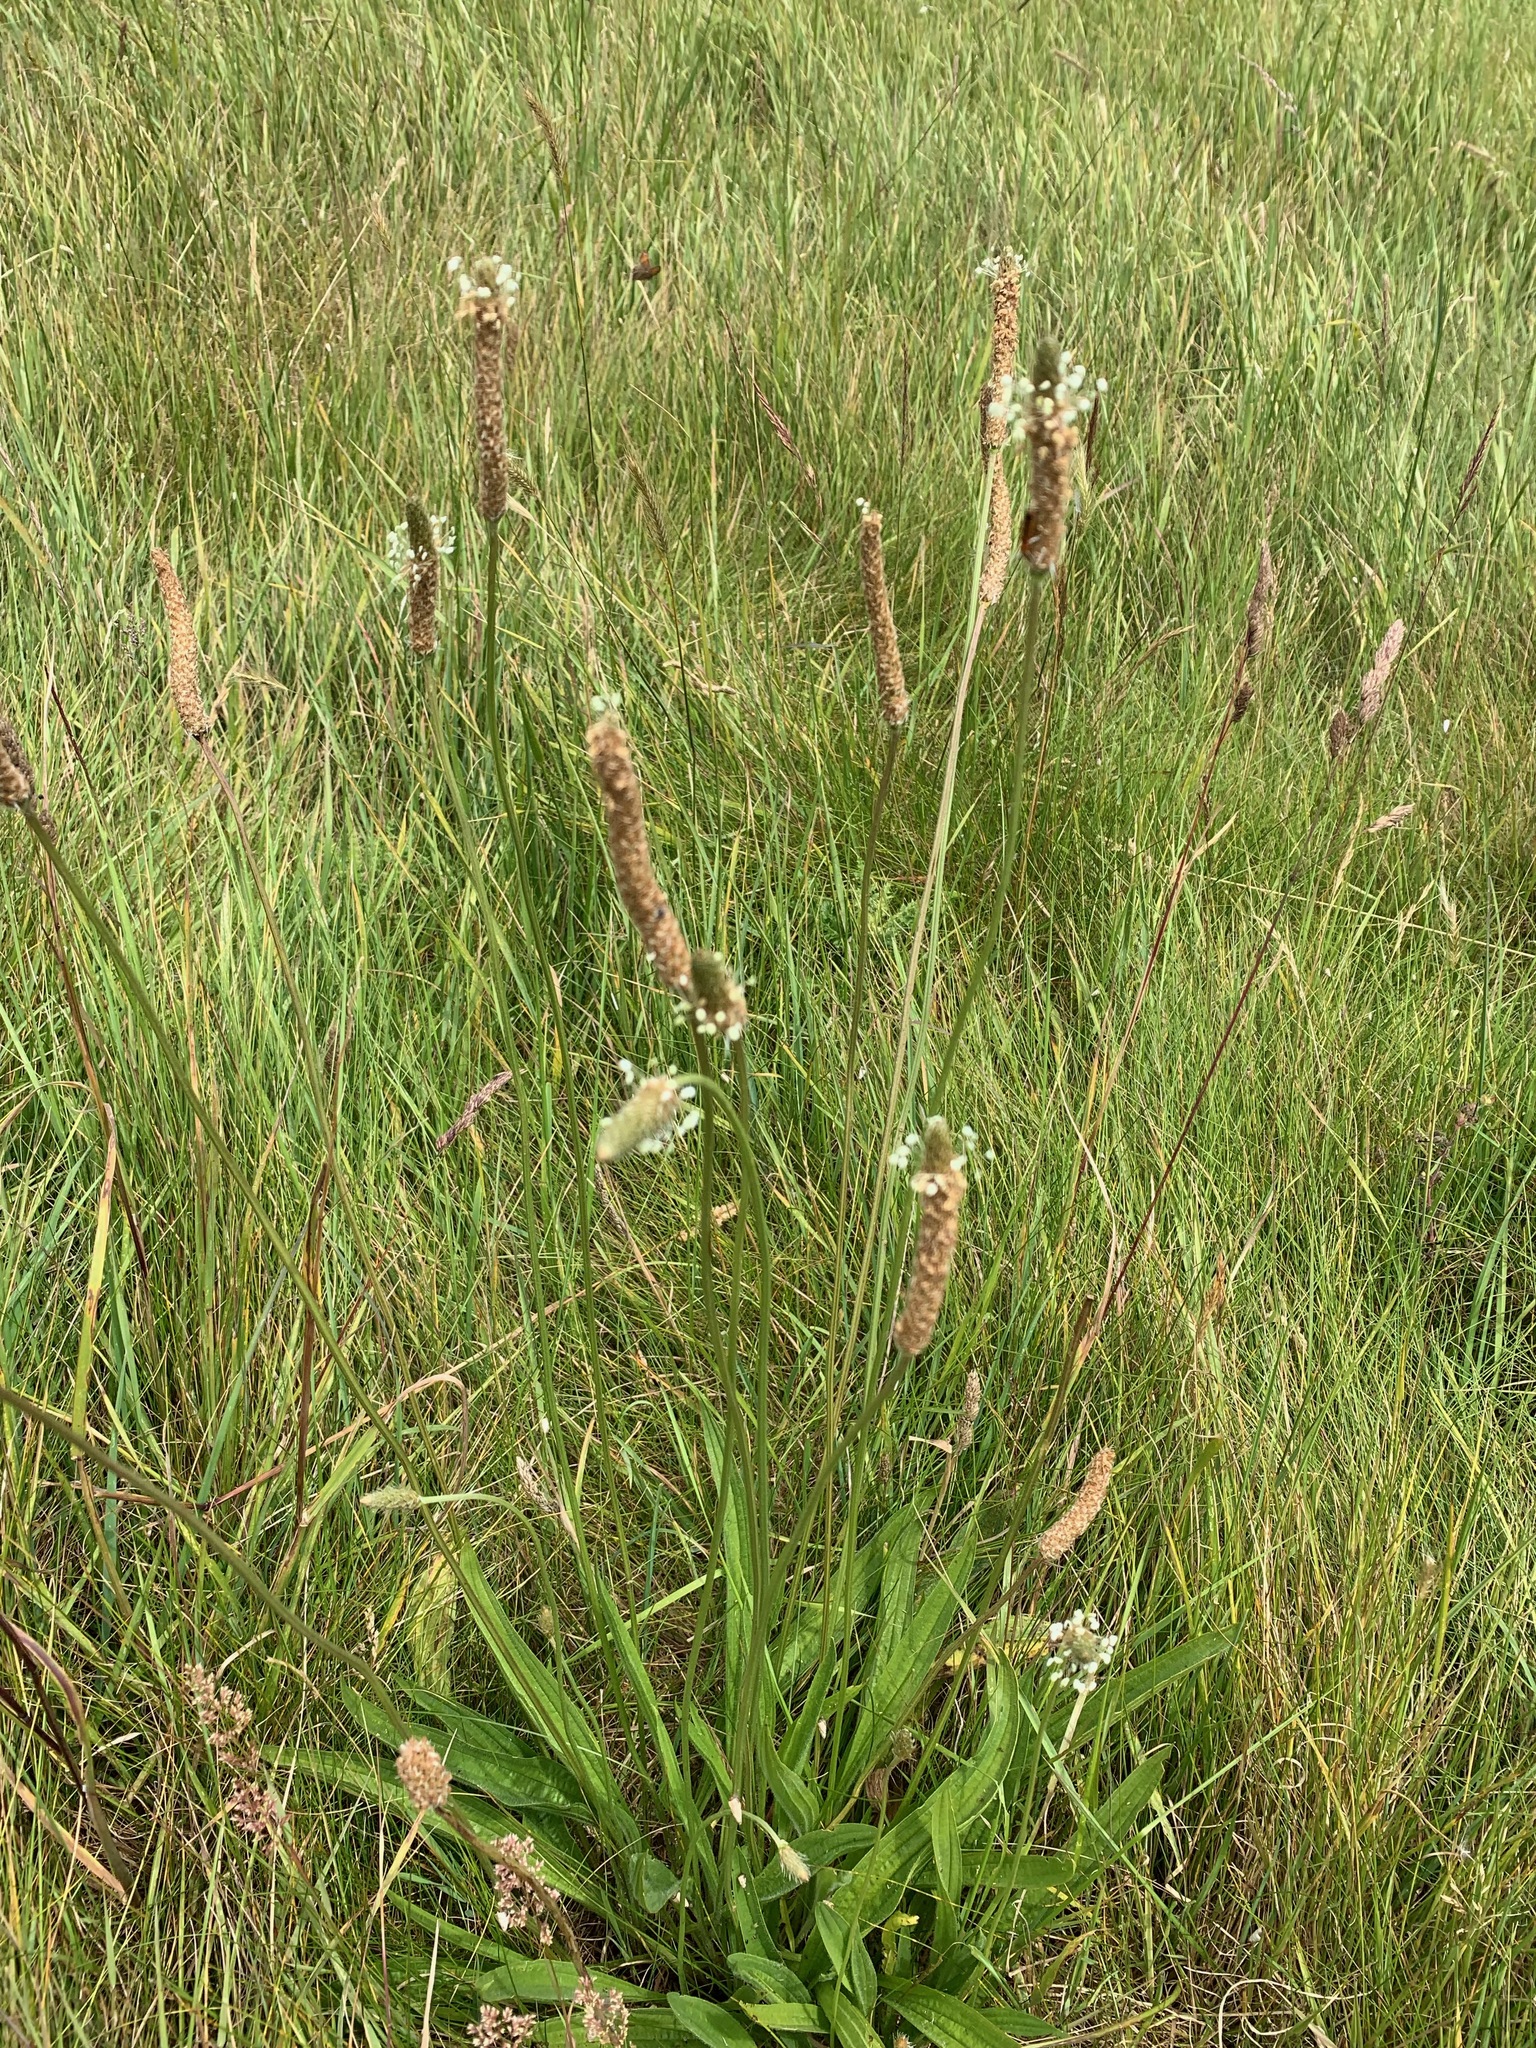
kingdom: Plantae
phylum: Tracheophyta
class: Magnoliopsida
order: Lamiales
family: Plantaginaceae
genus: Plantago
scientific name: Plantago lanceolata
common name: Ribwort plantain
